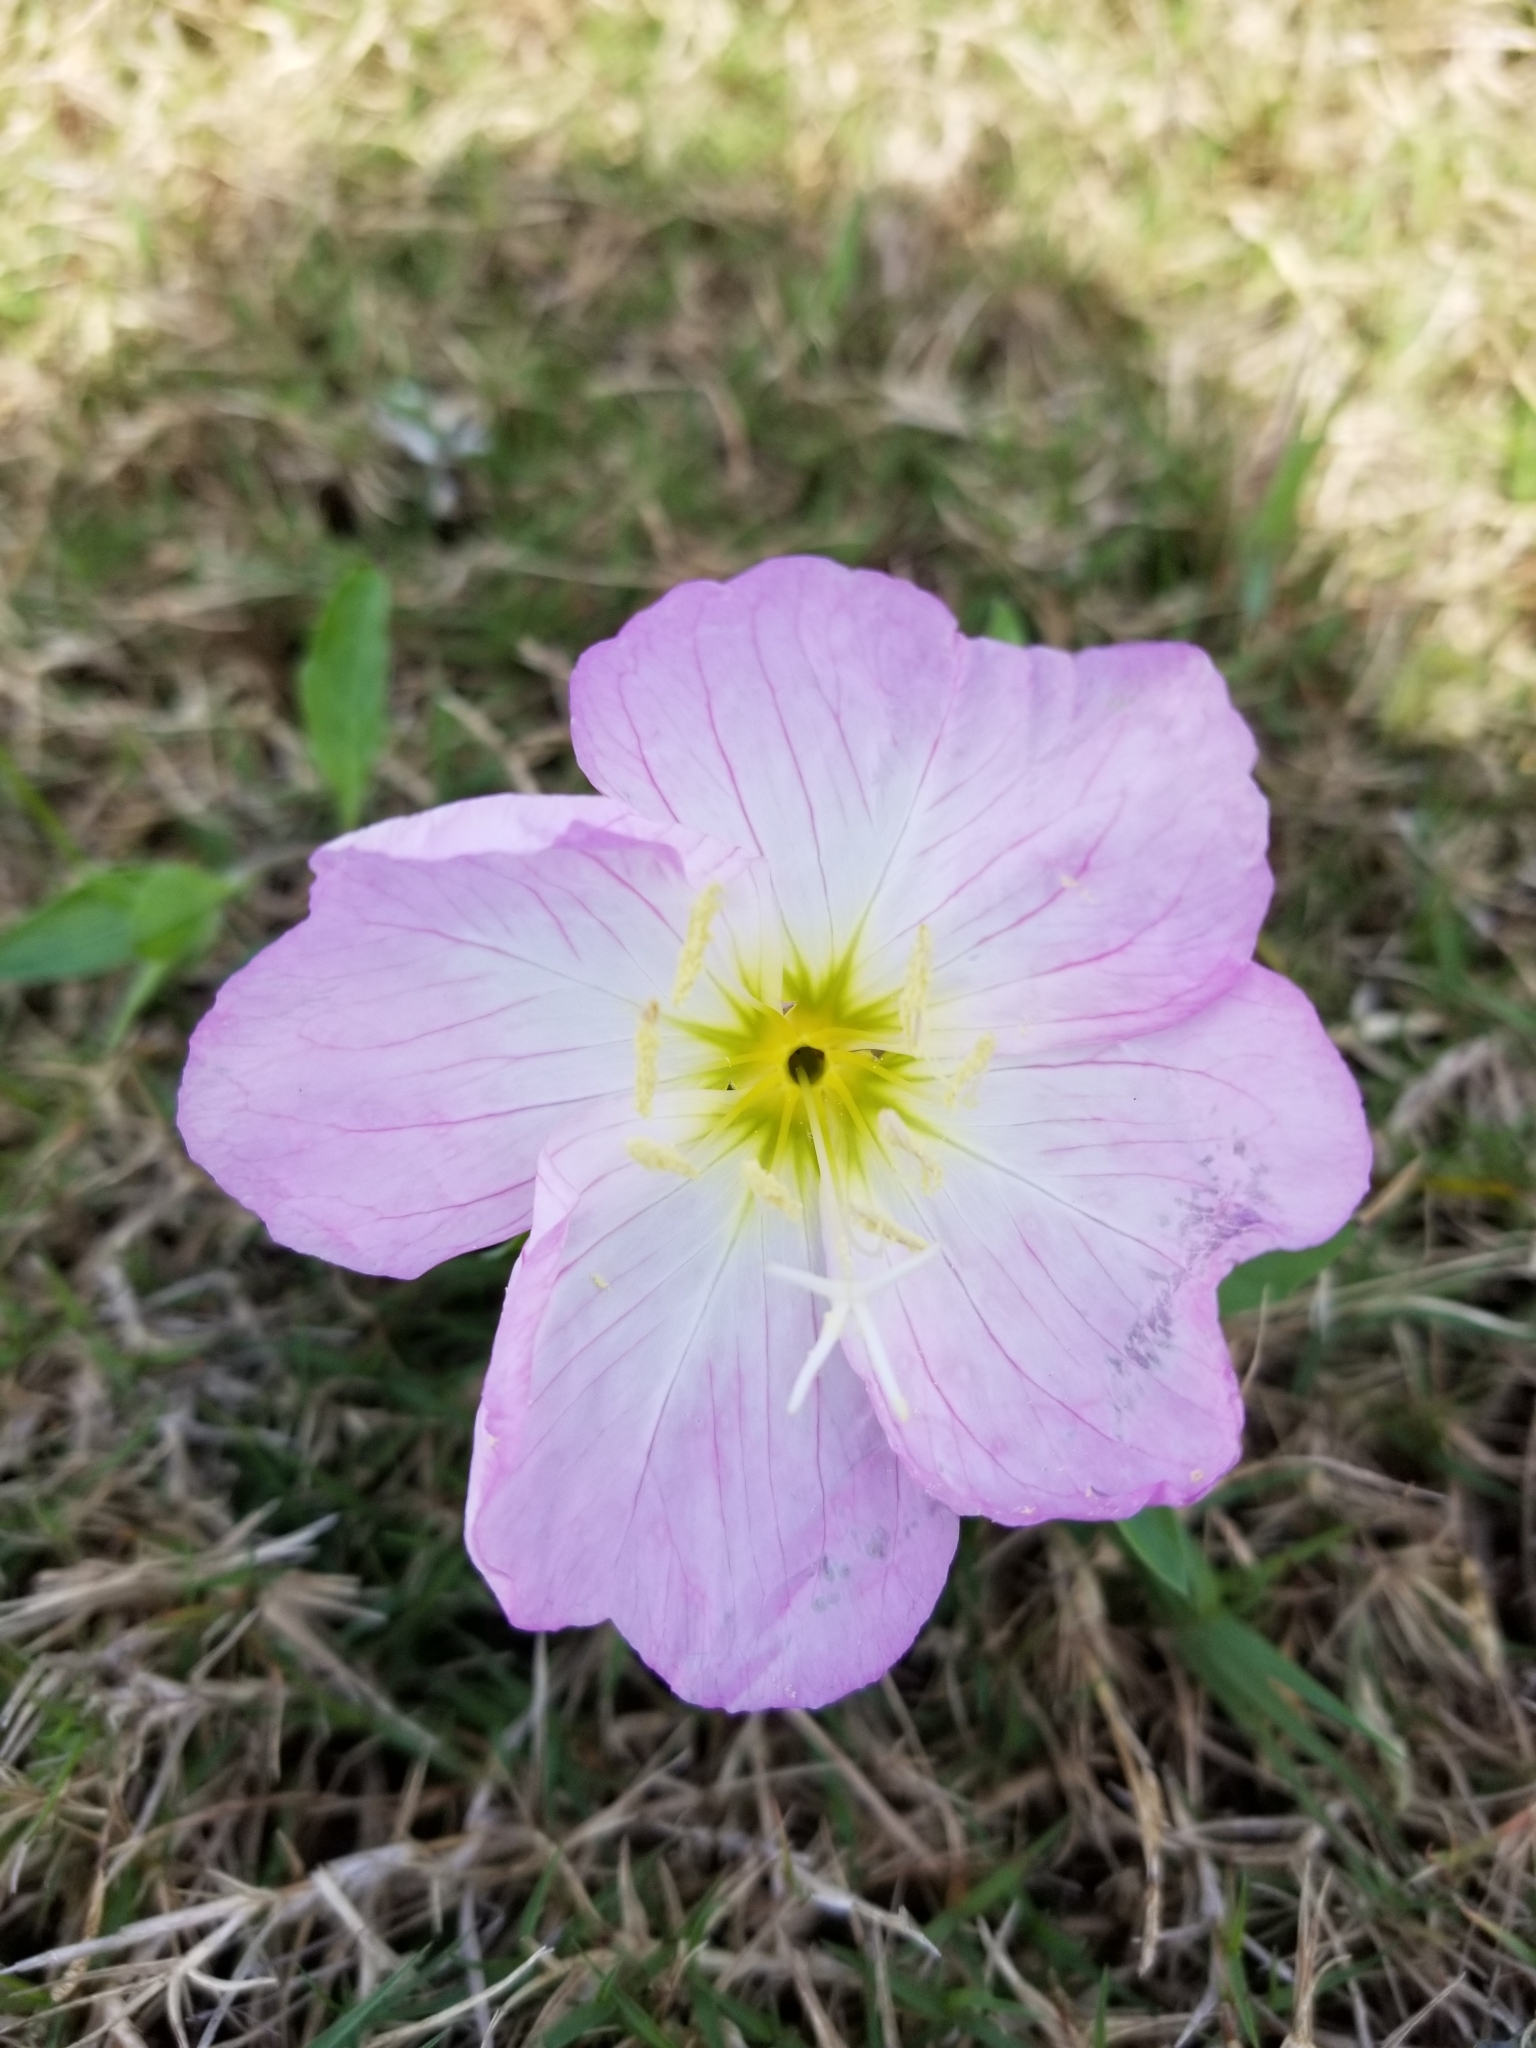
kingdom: Plantae
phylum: Tracheophyta
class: Magnoliopsida
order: Myrtales
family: Onagraceae
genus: Oenothera
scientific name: Oenothera speciosa
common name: White evening-primrose
